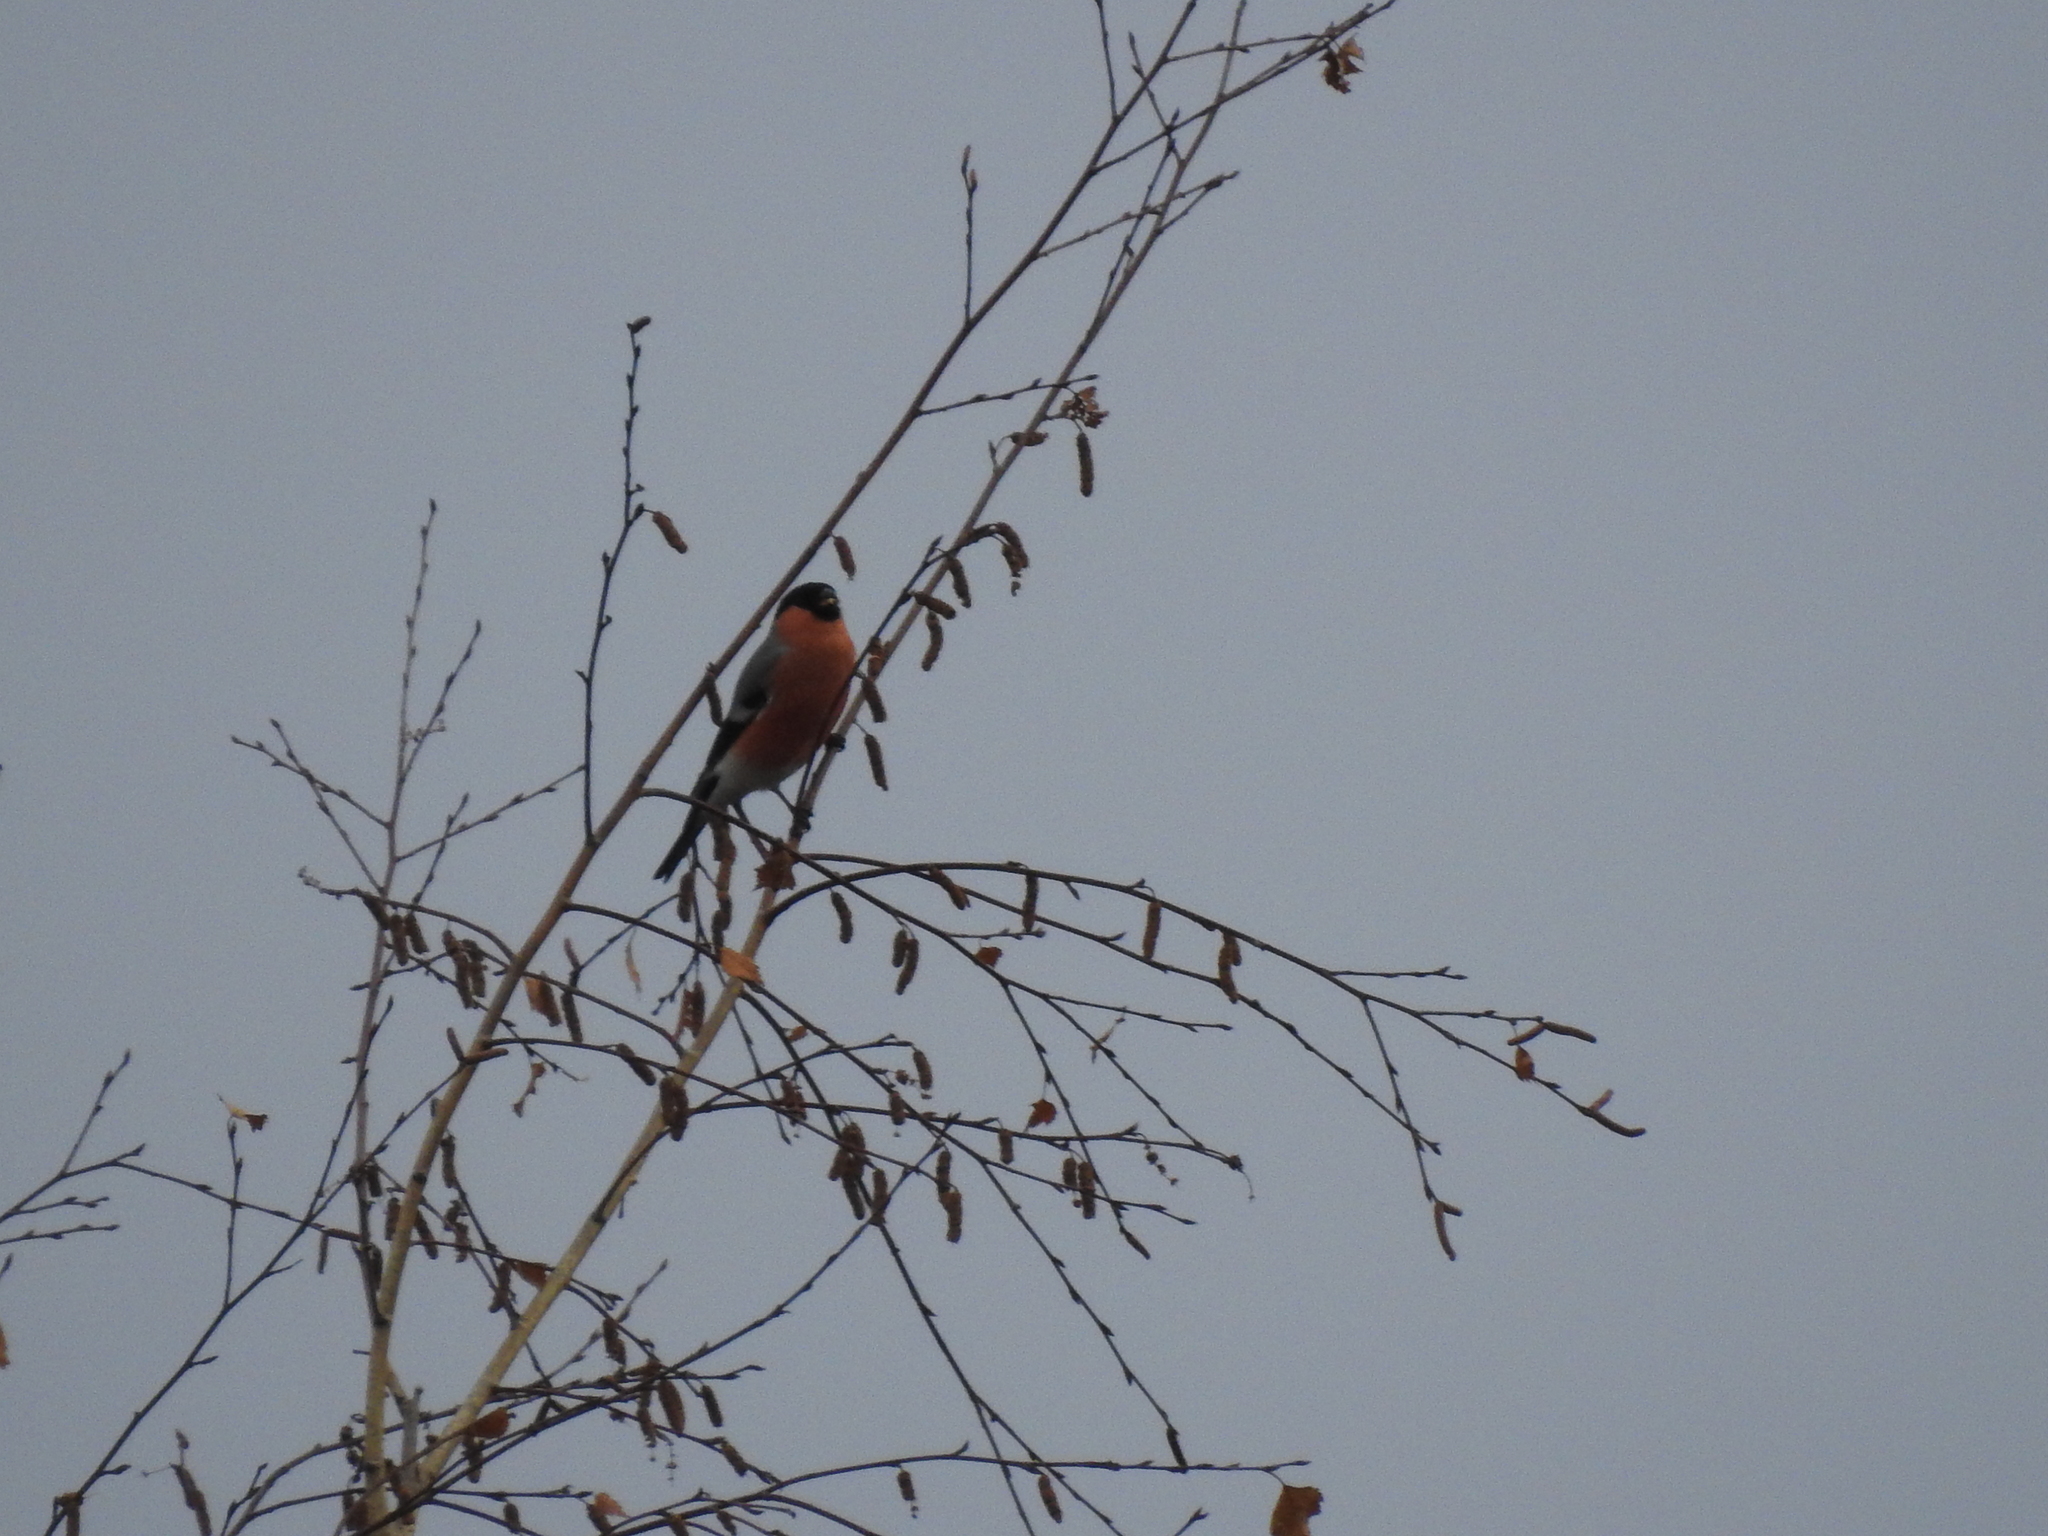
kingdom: Animalia
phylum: Chordata
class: Aves
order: Passeriformes
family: Fringillidae
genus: Pyrrhula
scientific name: Pyrrhula pyrrhula
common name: Eurasian bullfinch
